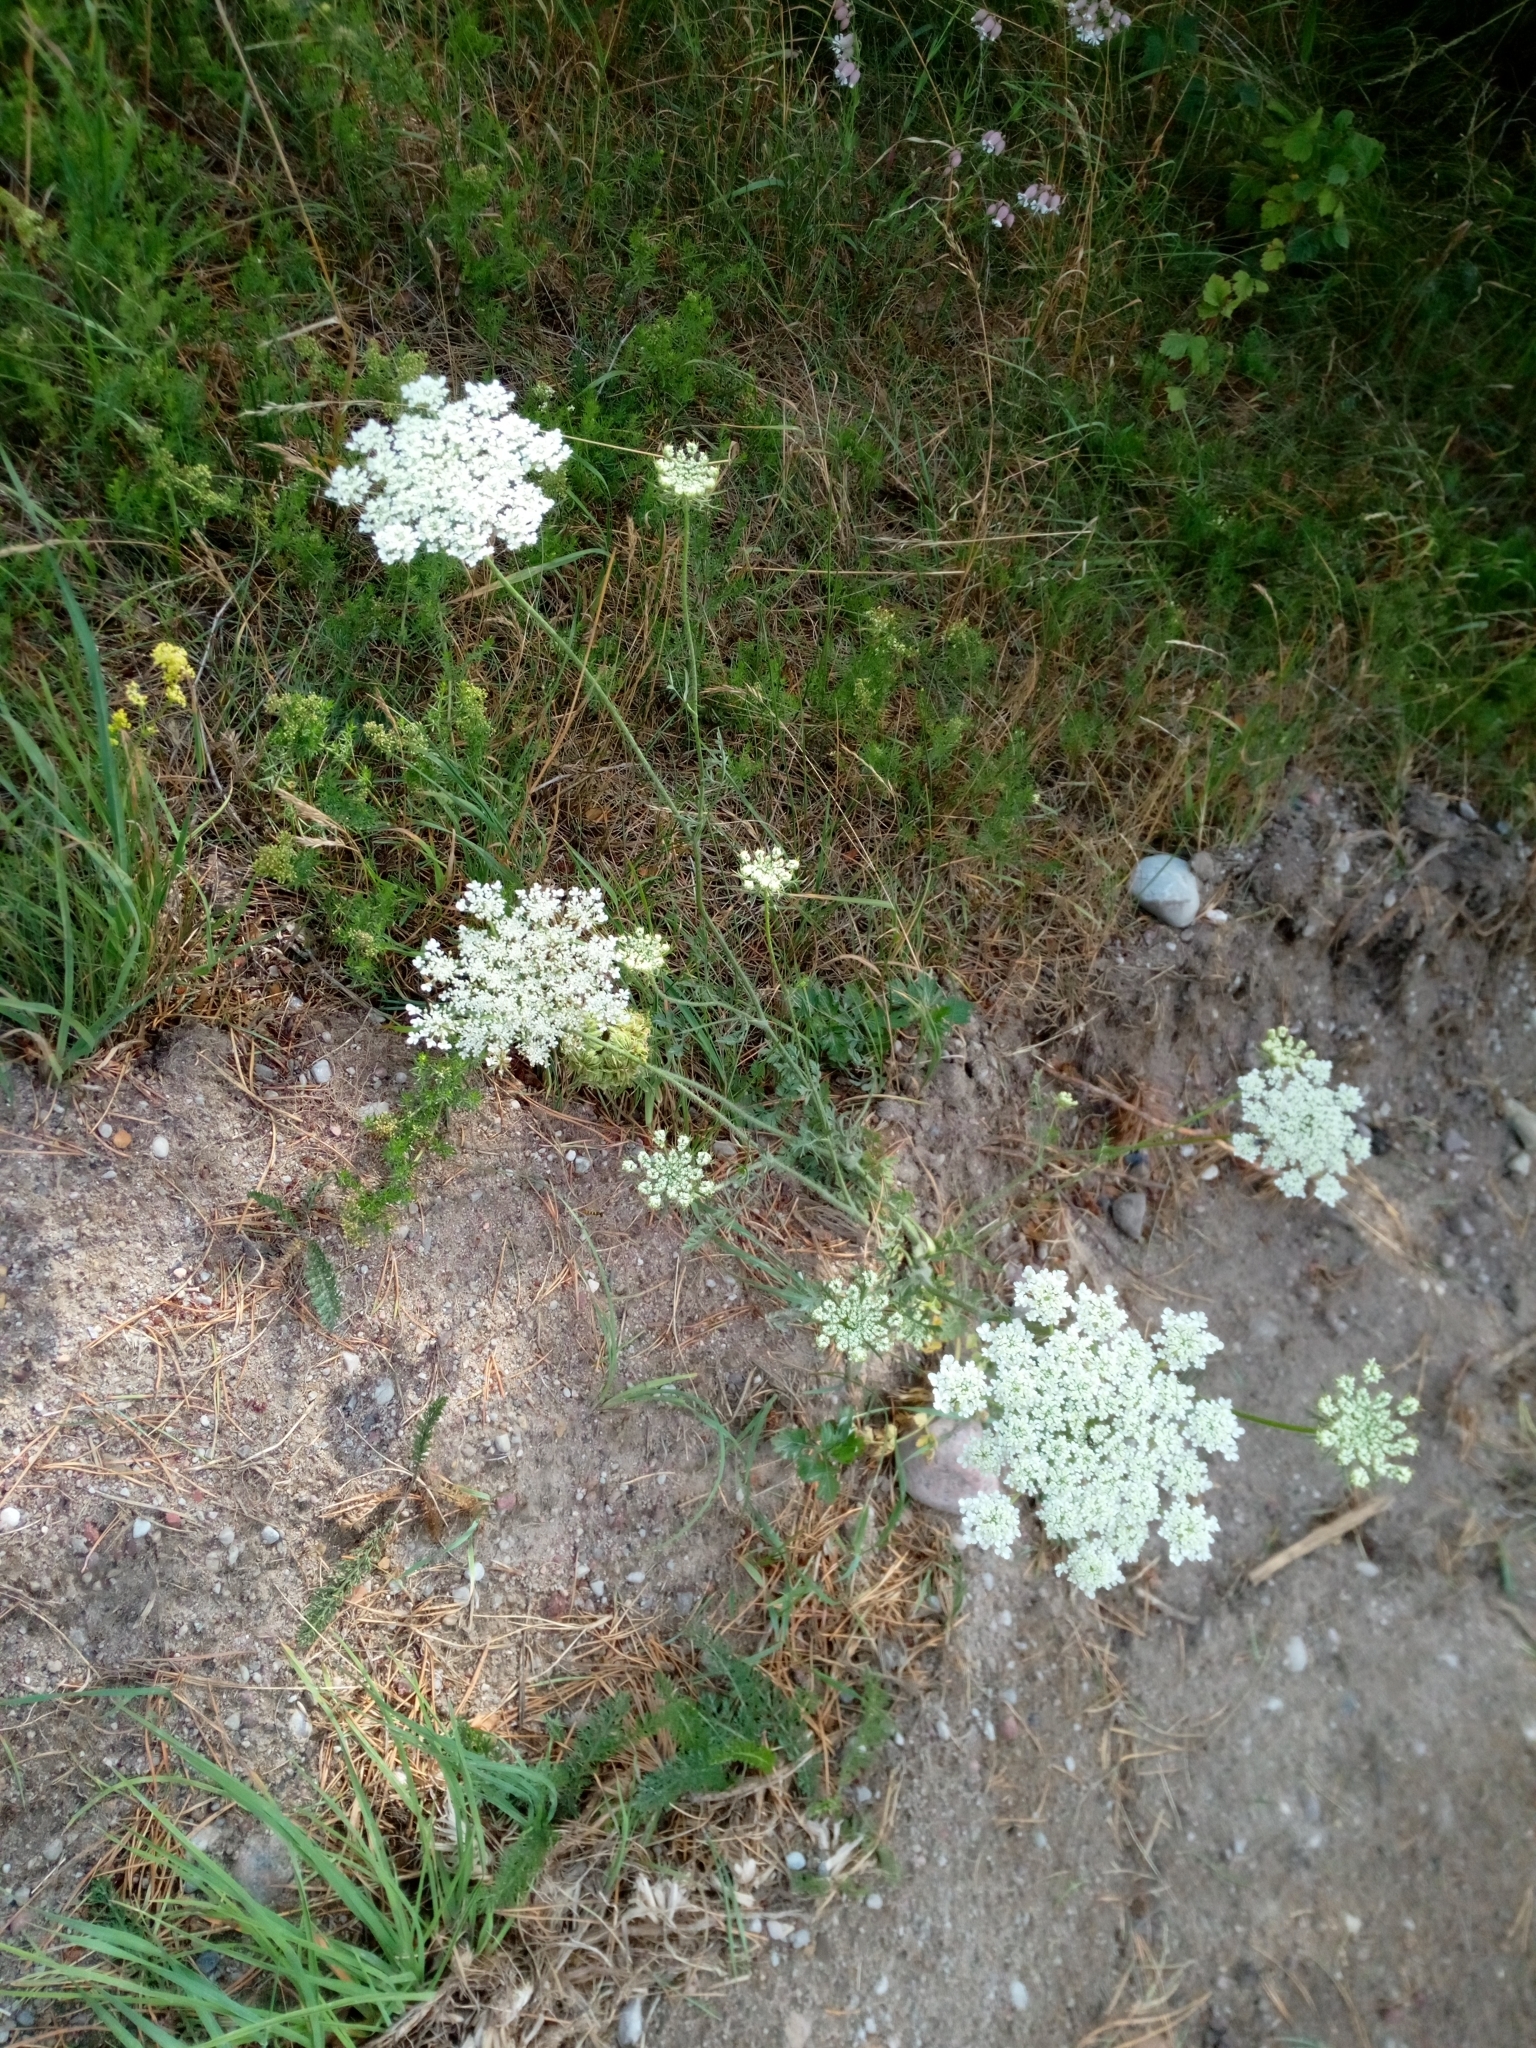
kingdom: Plantae
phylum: Tracheophyta
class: Magnoliopsida
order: Apiales
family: Apiaceae
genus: Daucus
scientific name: Daucus carota
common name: Wild carrot
